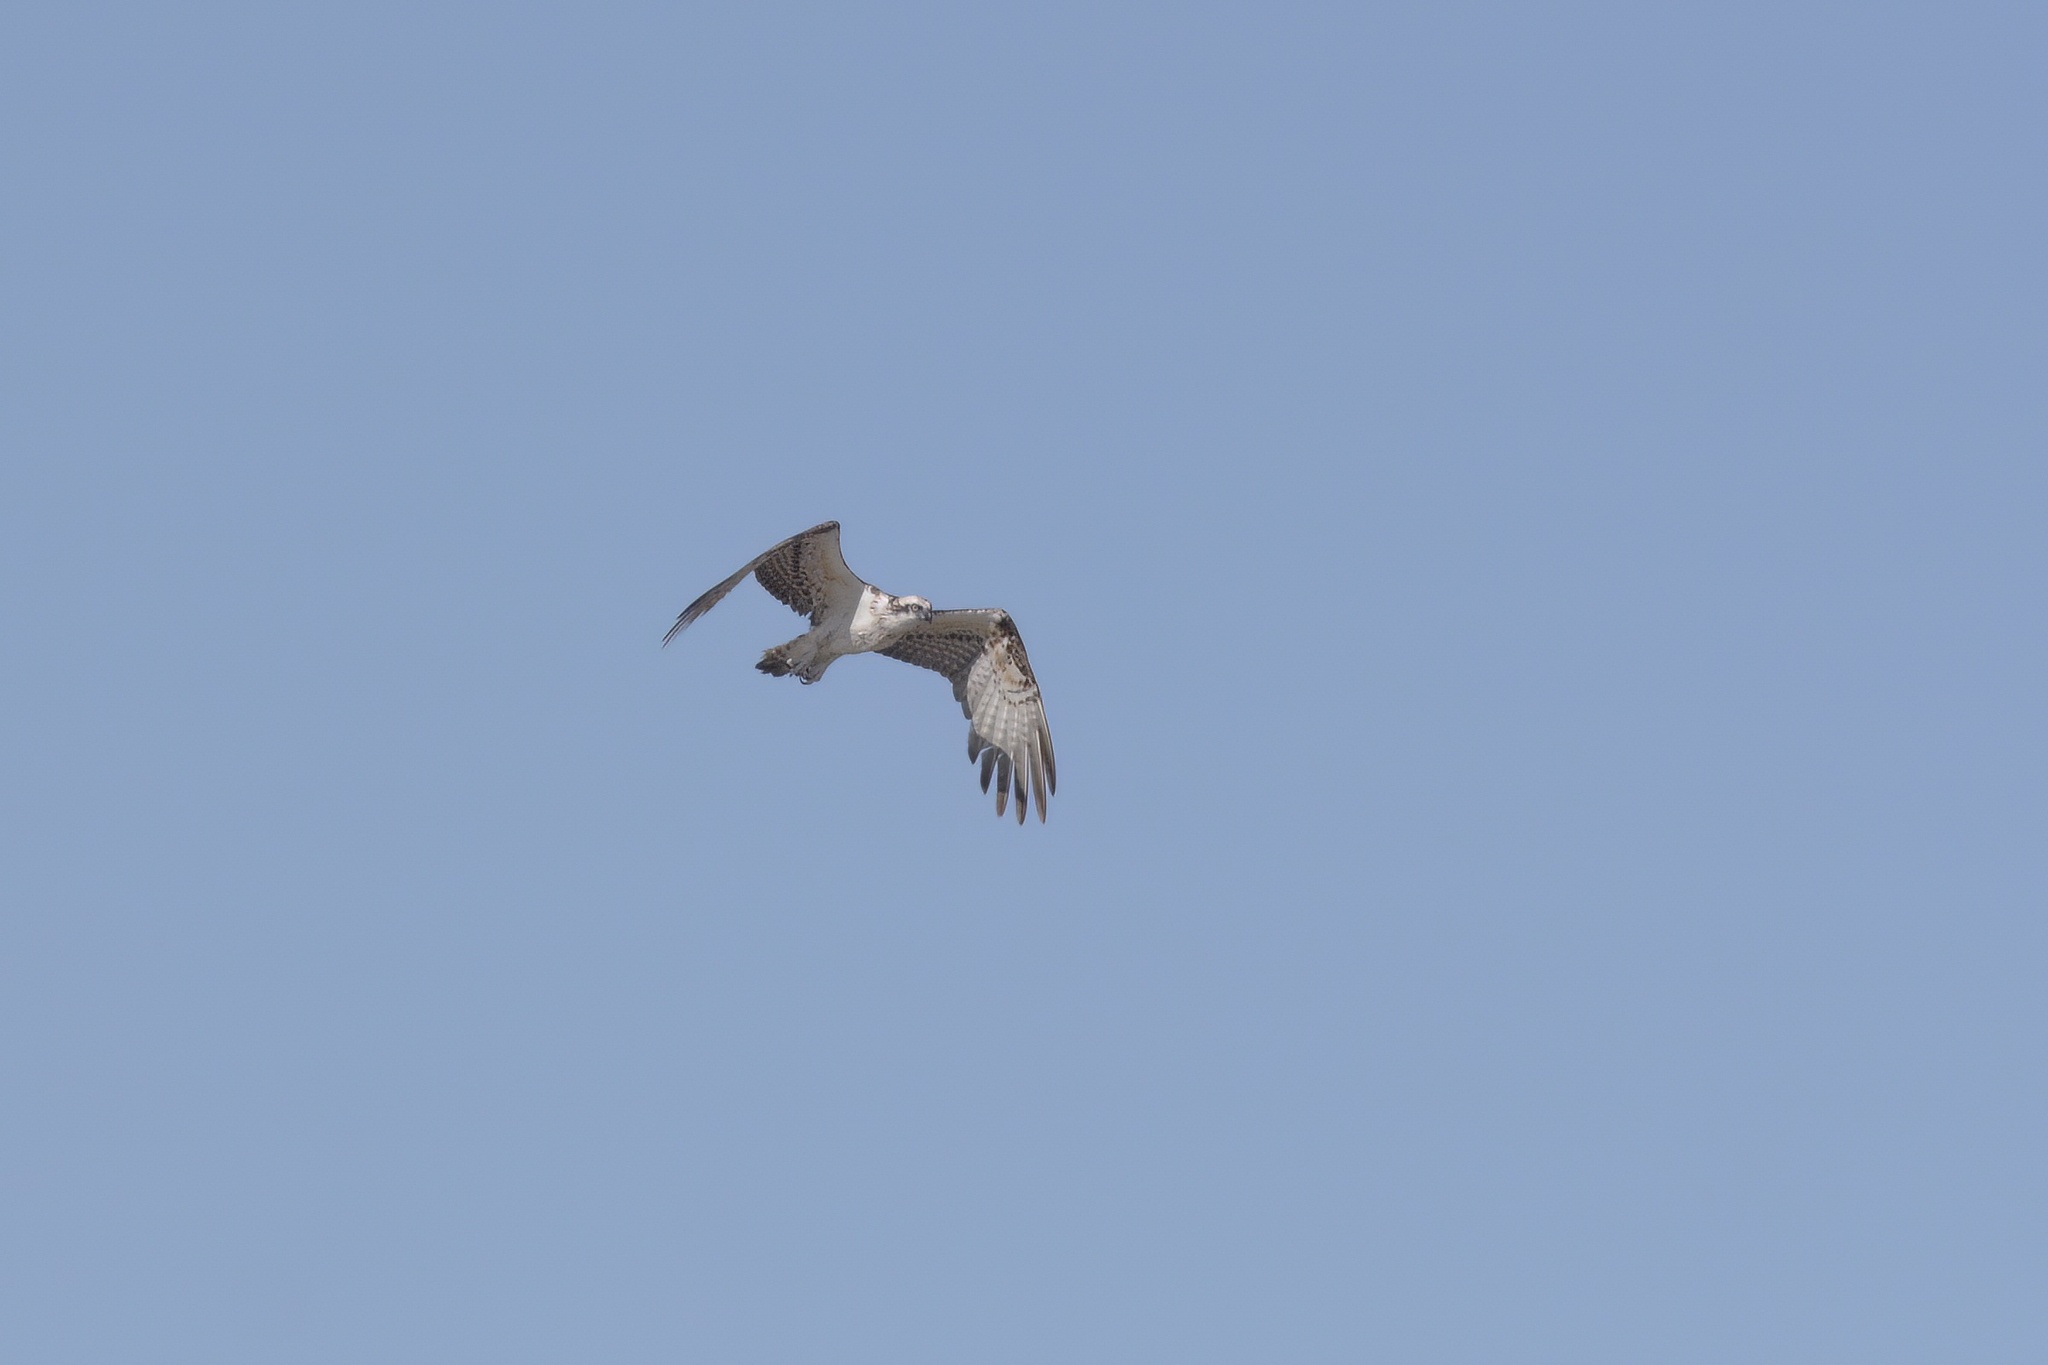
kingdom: Animalia
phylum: Chordata
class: Aves
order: Accipitriformes
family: Pandionidae
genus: Pandion
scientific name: Pandion haliaetus
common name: Osprey
